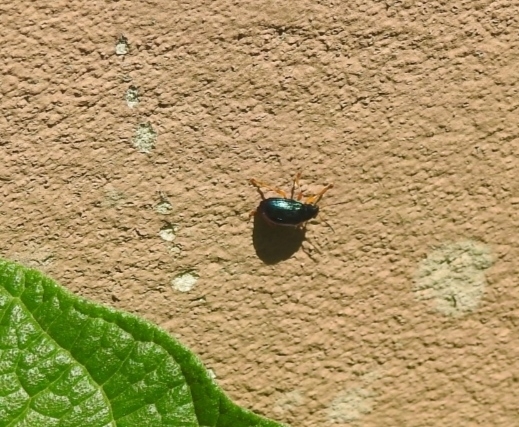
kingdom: Animalia
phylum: Arthropoda
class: Insecta
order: Coleoptera
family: Chrysomelidae
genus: Colaspis
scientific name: Colaspis
